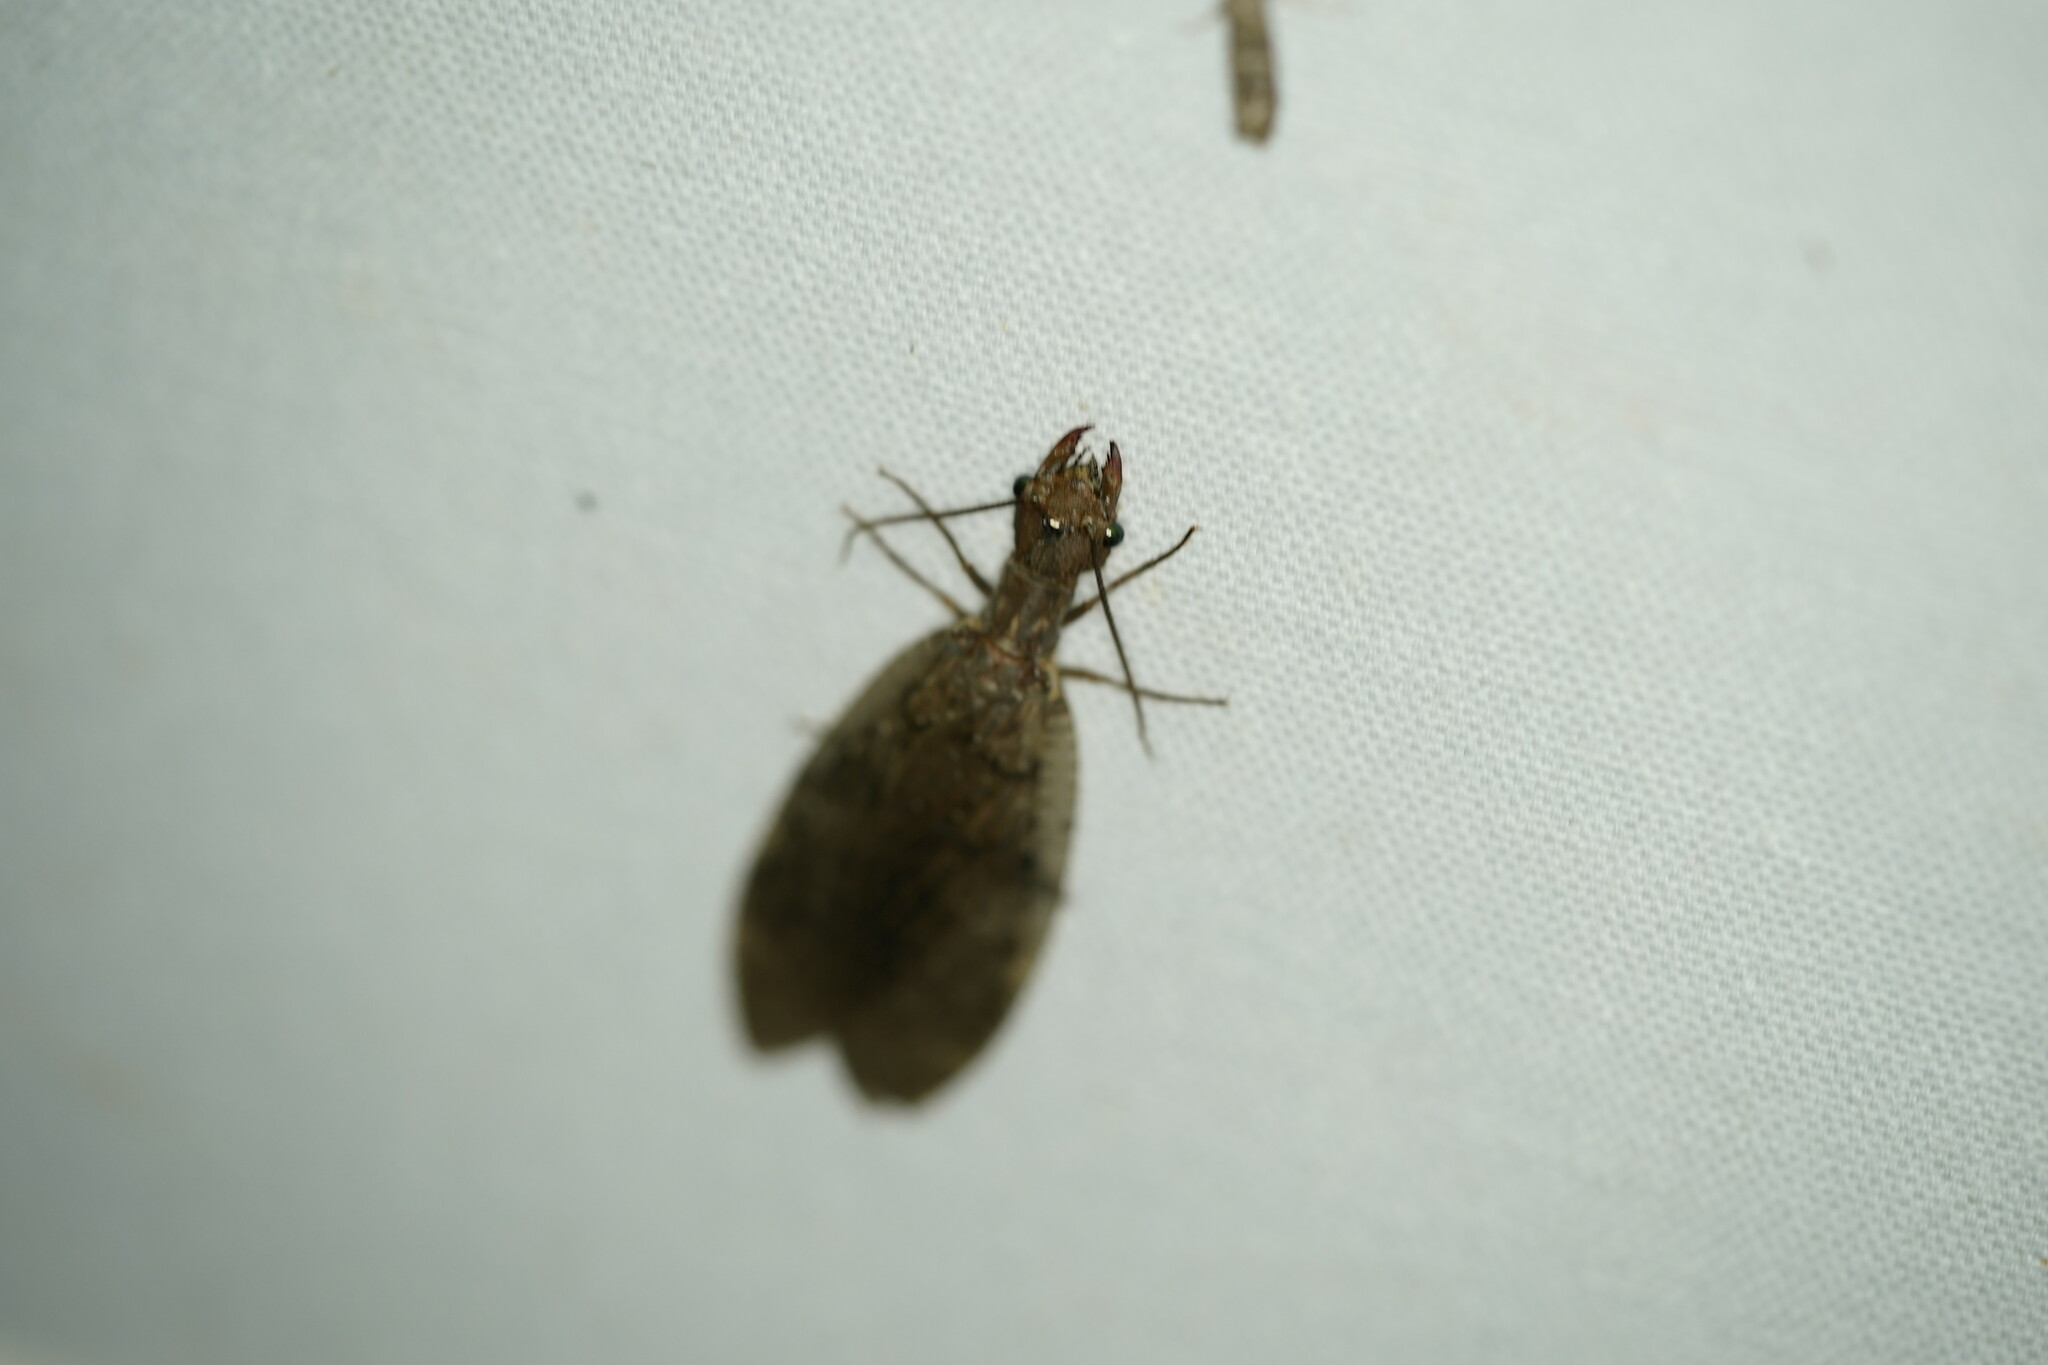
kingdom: Animalia
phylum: Arthropoda
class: Insecta
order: Megaloptera
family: Corydalidae
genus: Corydalus
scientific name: Corydalus cornutus
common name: Dobsonfly
